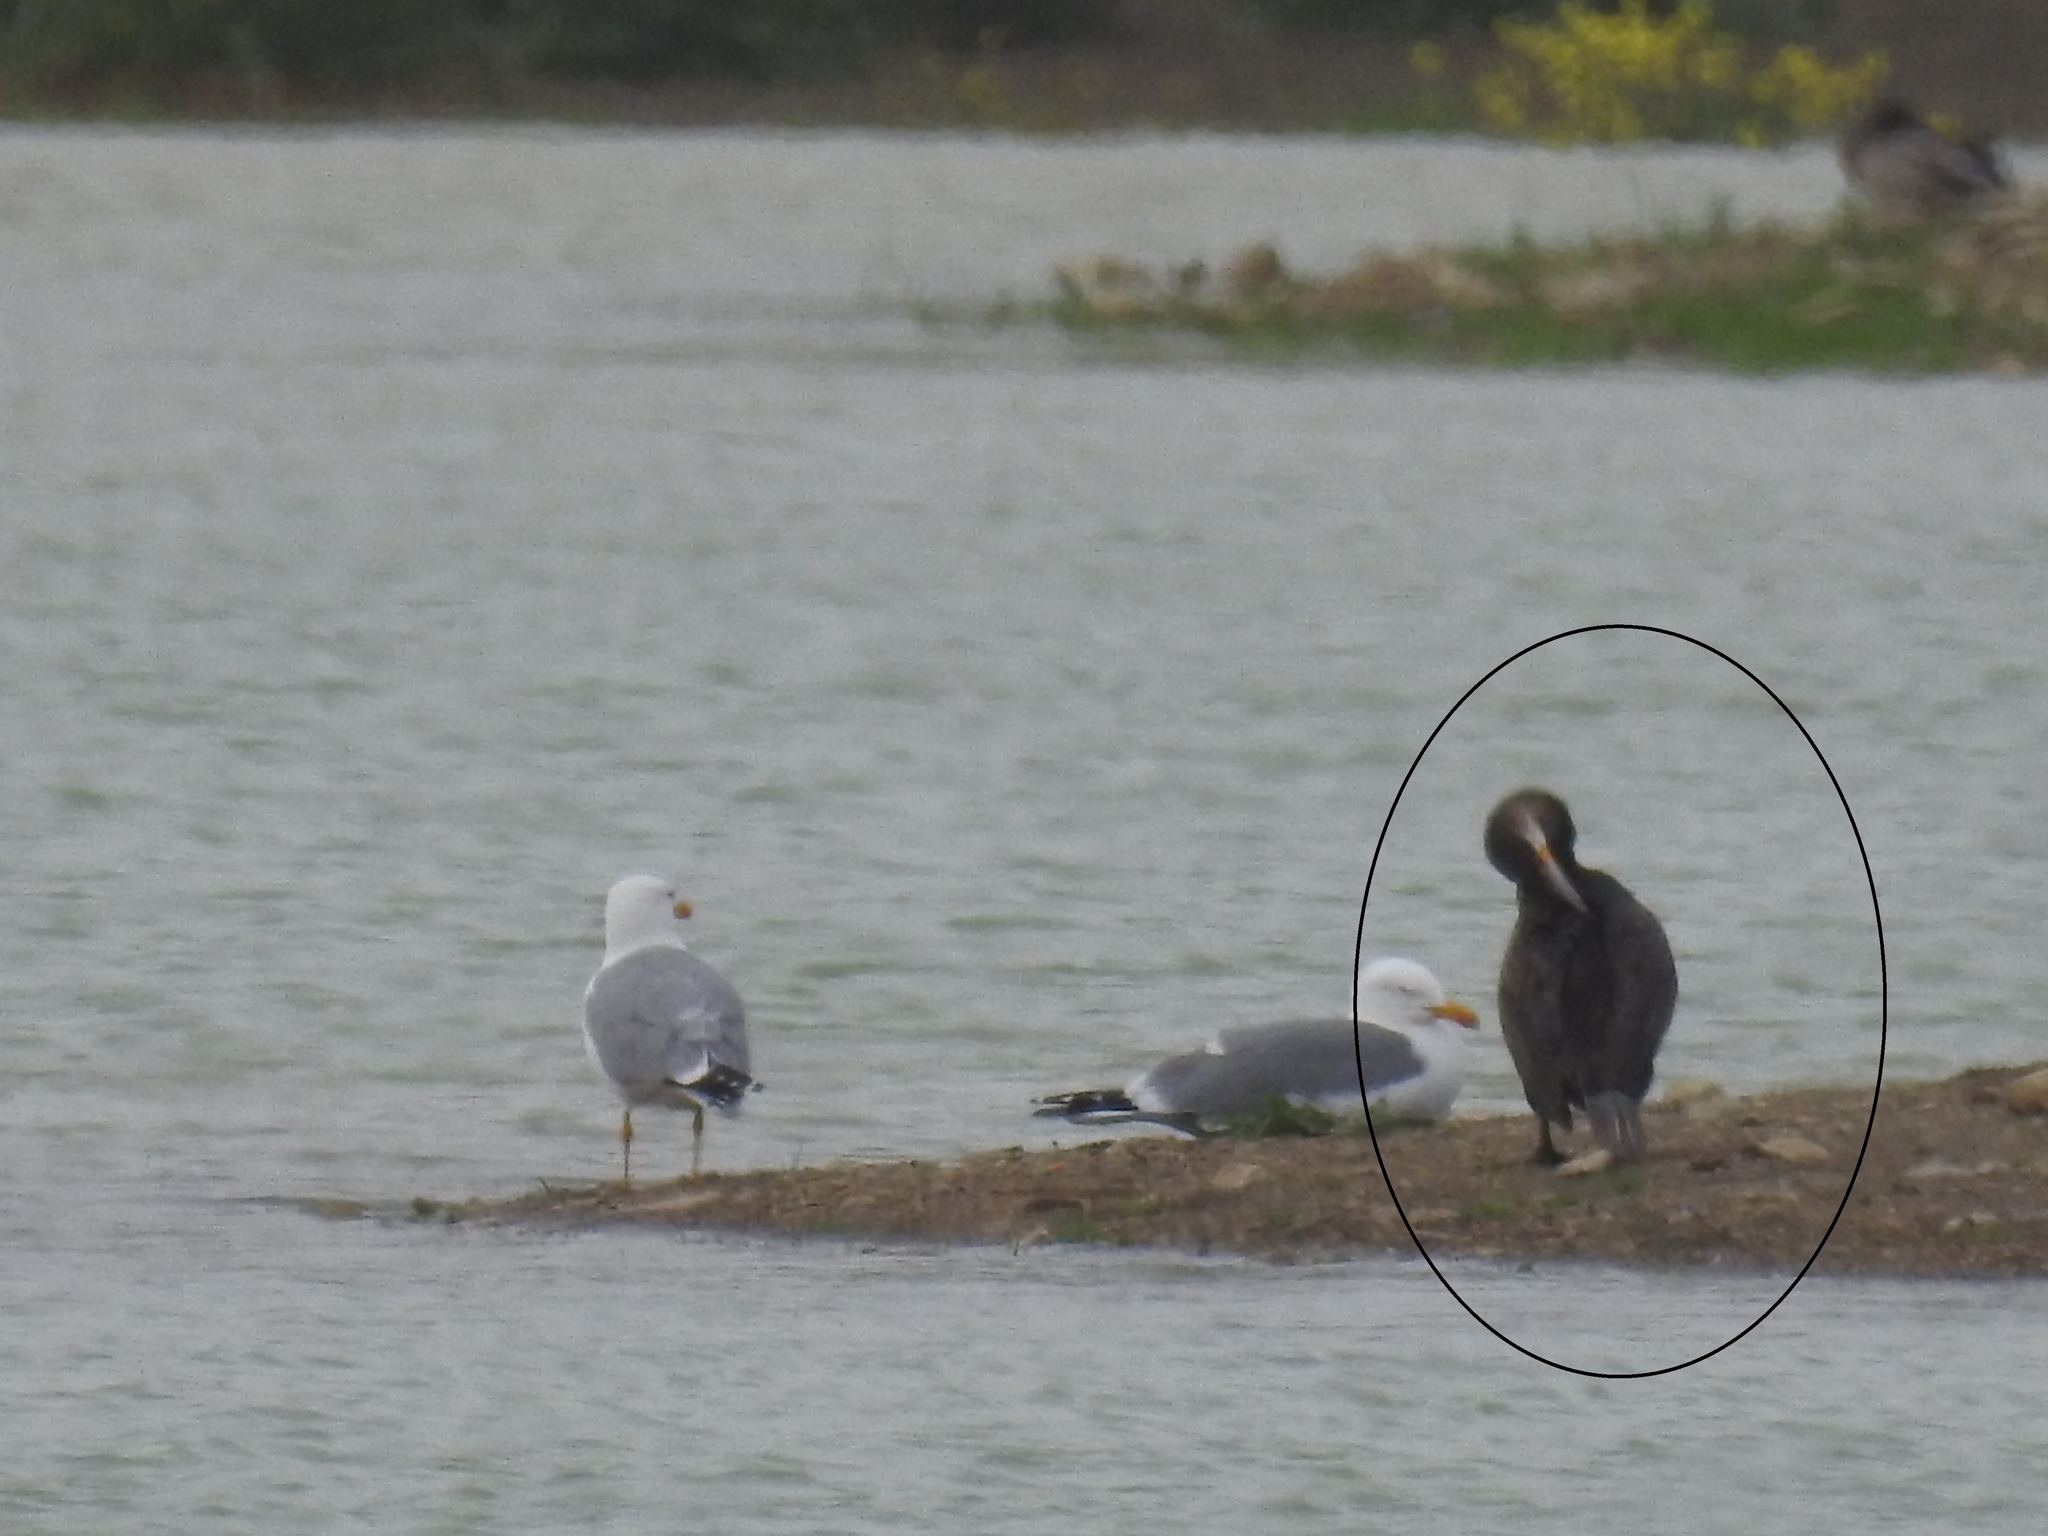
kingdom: Animalia
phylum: Chordata
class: Aves
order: Suliformes
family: Phalacrocoracidae
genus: Phalacrocorax
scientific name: Phalacrocorax carbo
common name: Great cormorant
